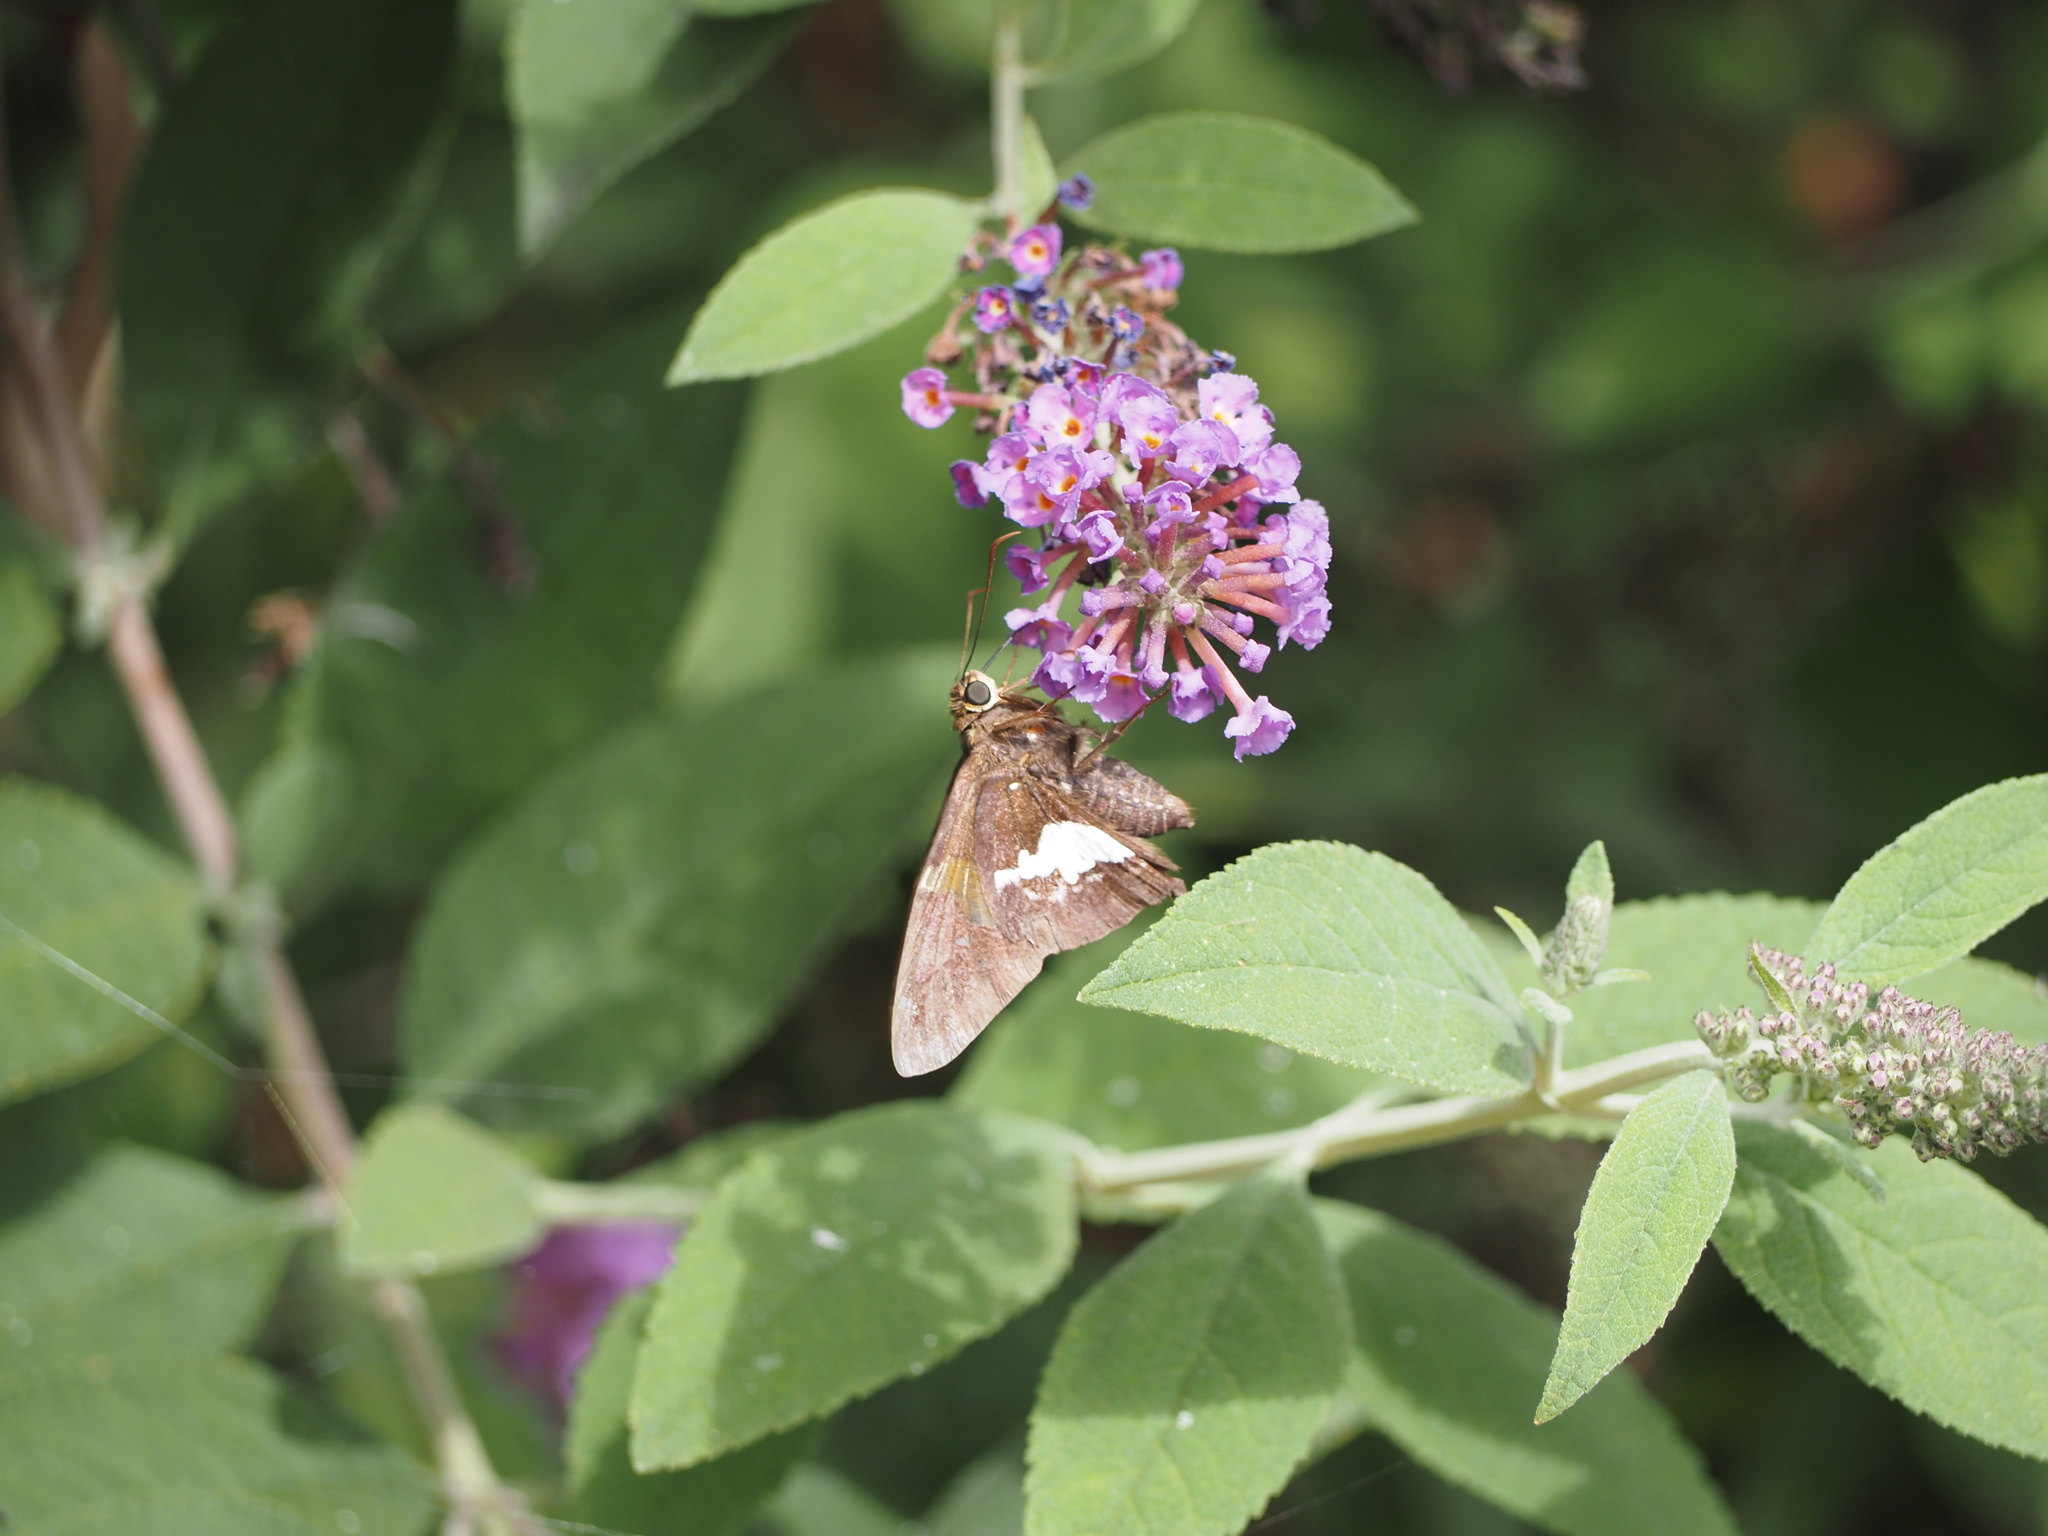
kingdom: Animalia
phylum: Arthropoda
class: Insecta
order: Lepidoptera
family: Hesperiidae
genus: Epargyreus
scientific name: Epargyreus clarus
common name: Silver-spotted skipper
